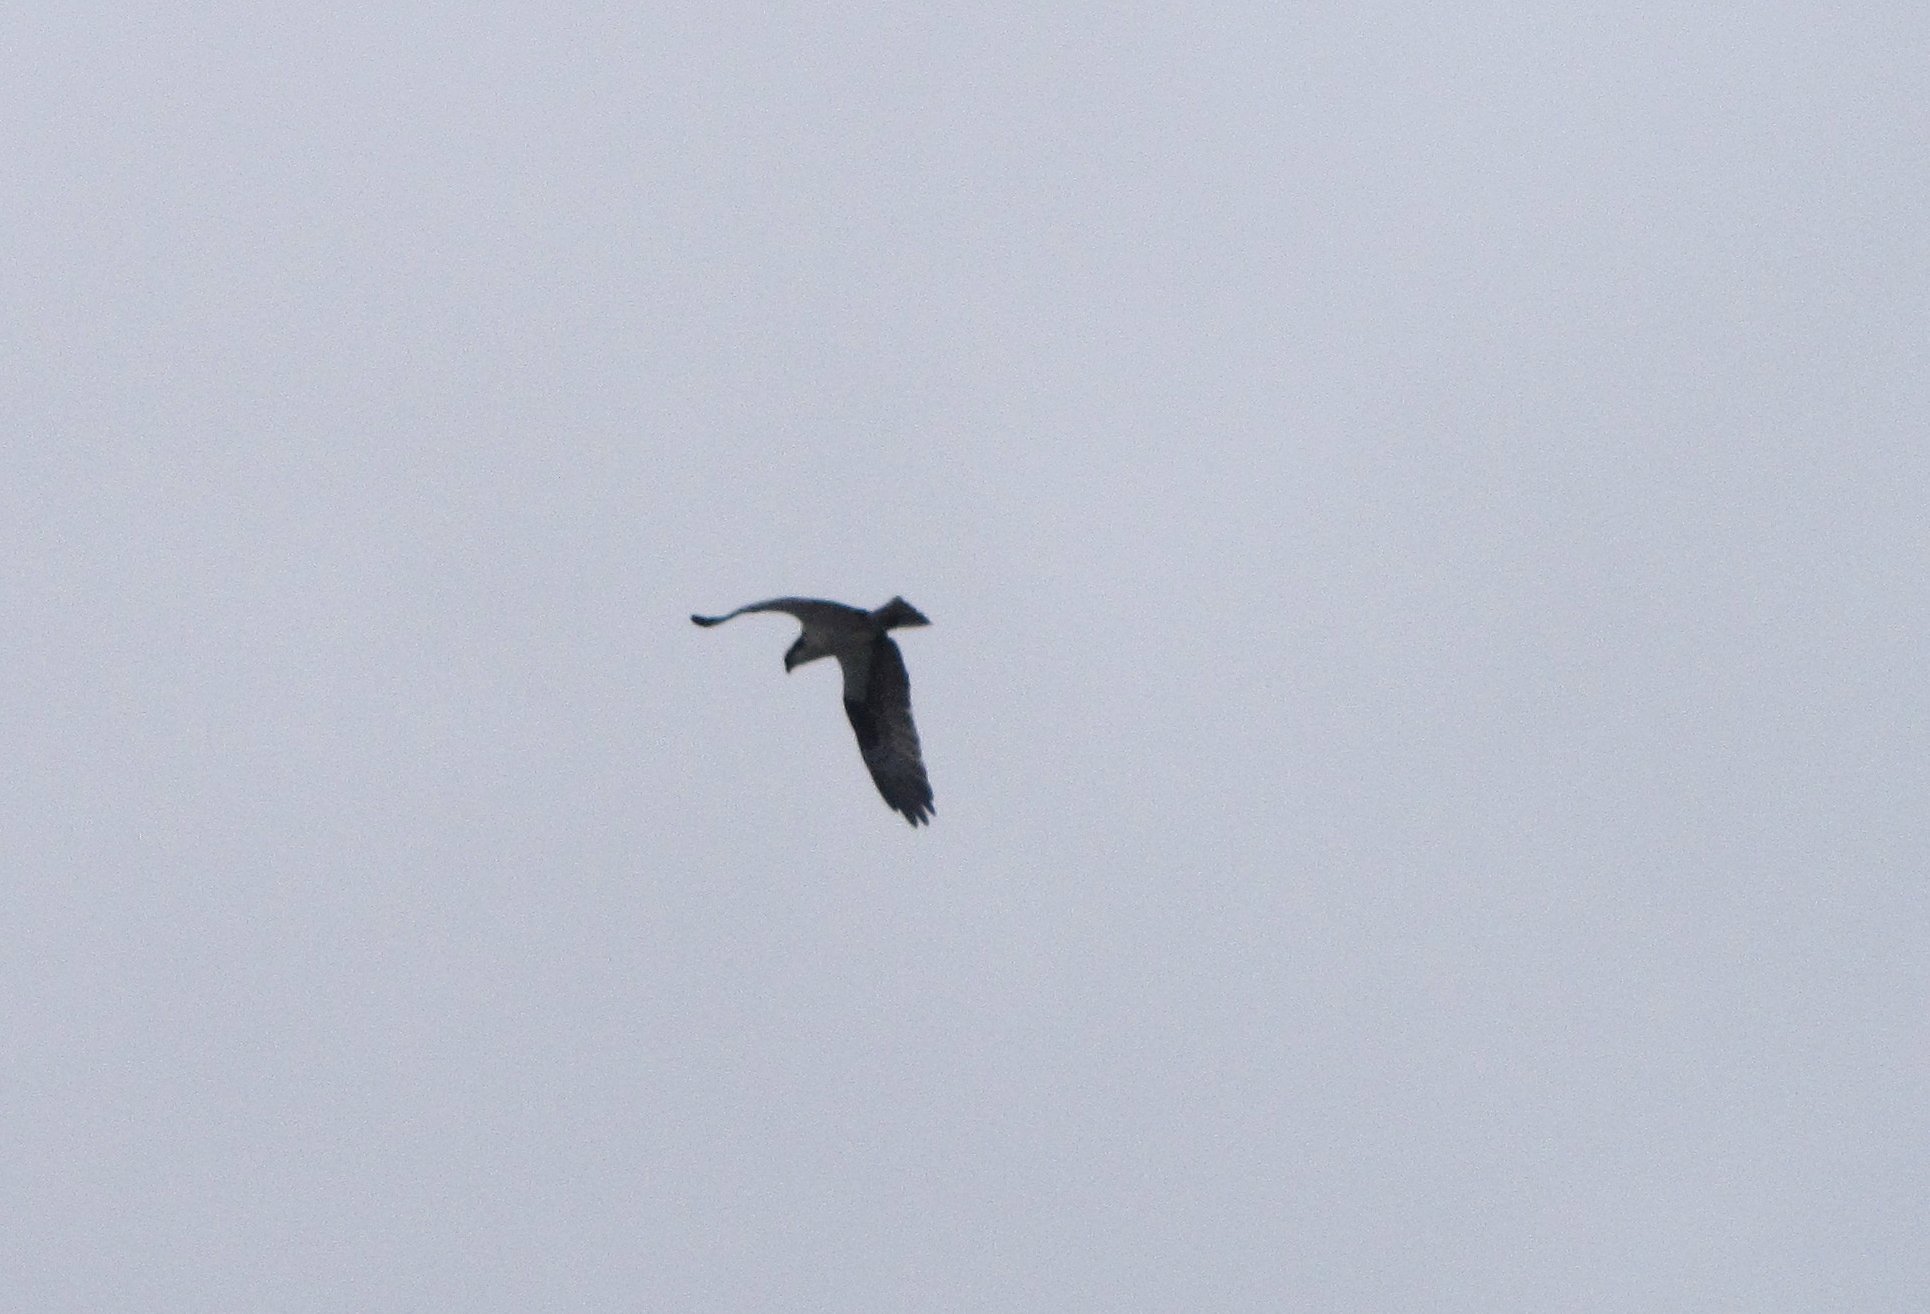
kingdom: Animalia
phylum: Chordata
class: Aves
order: Accipitriformes
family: Pandionidae
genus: Pandion
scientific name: Pandion haliaetus
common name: Osprey
